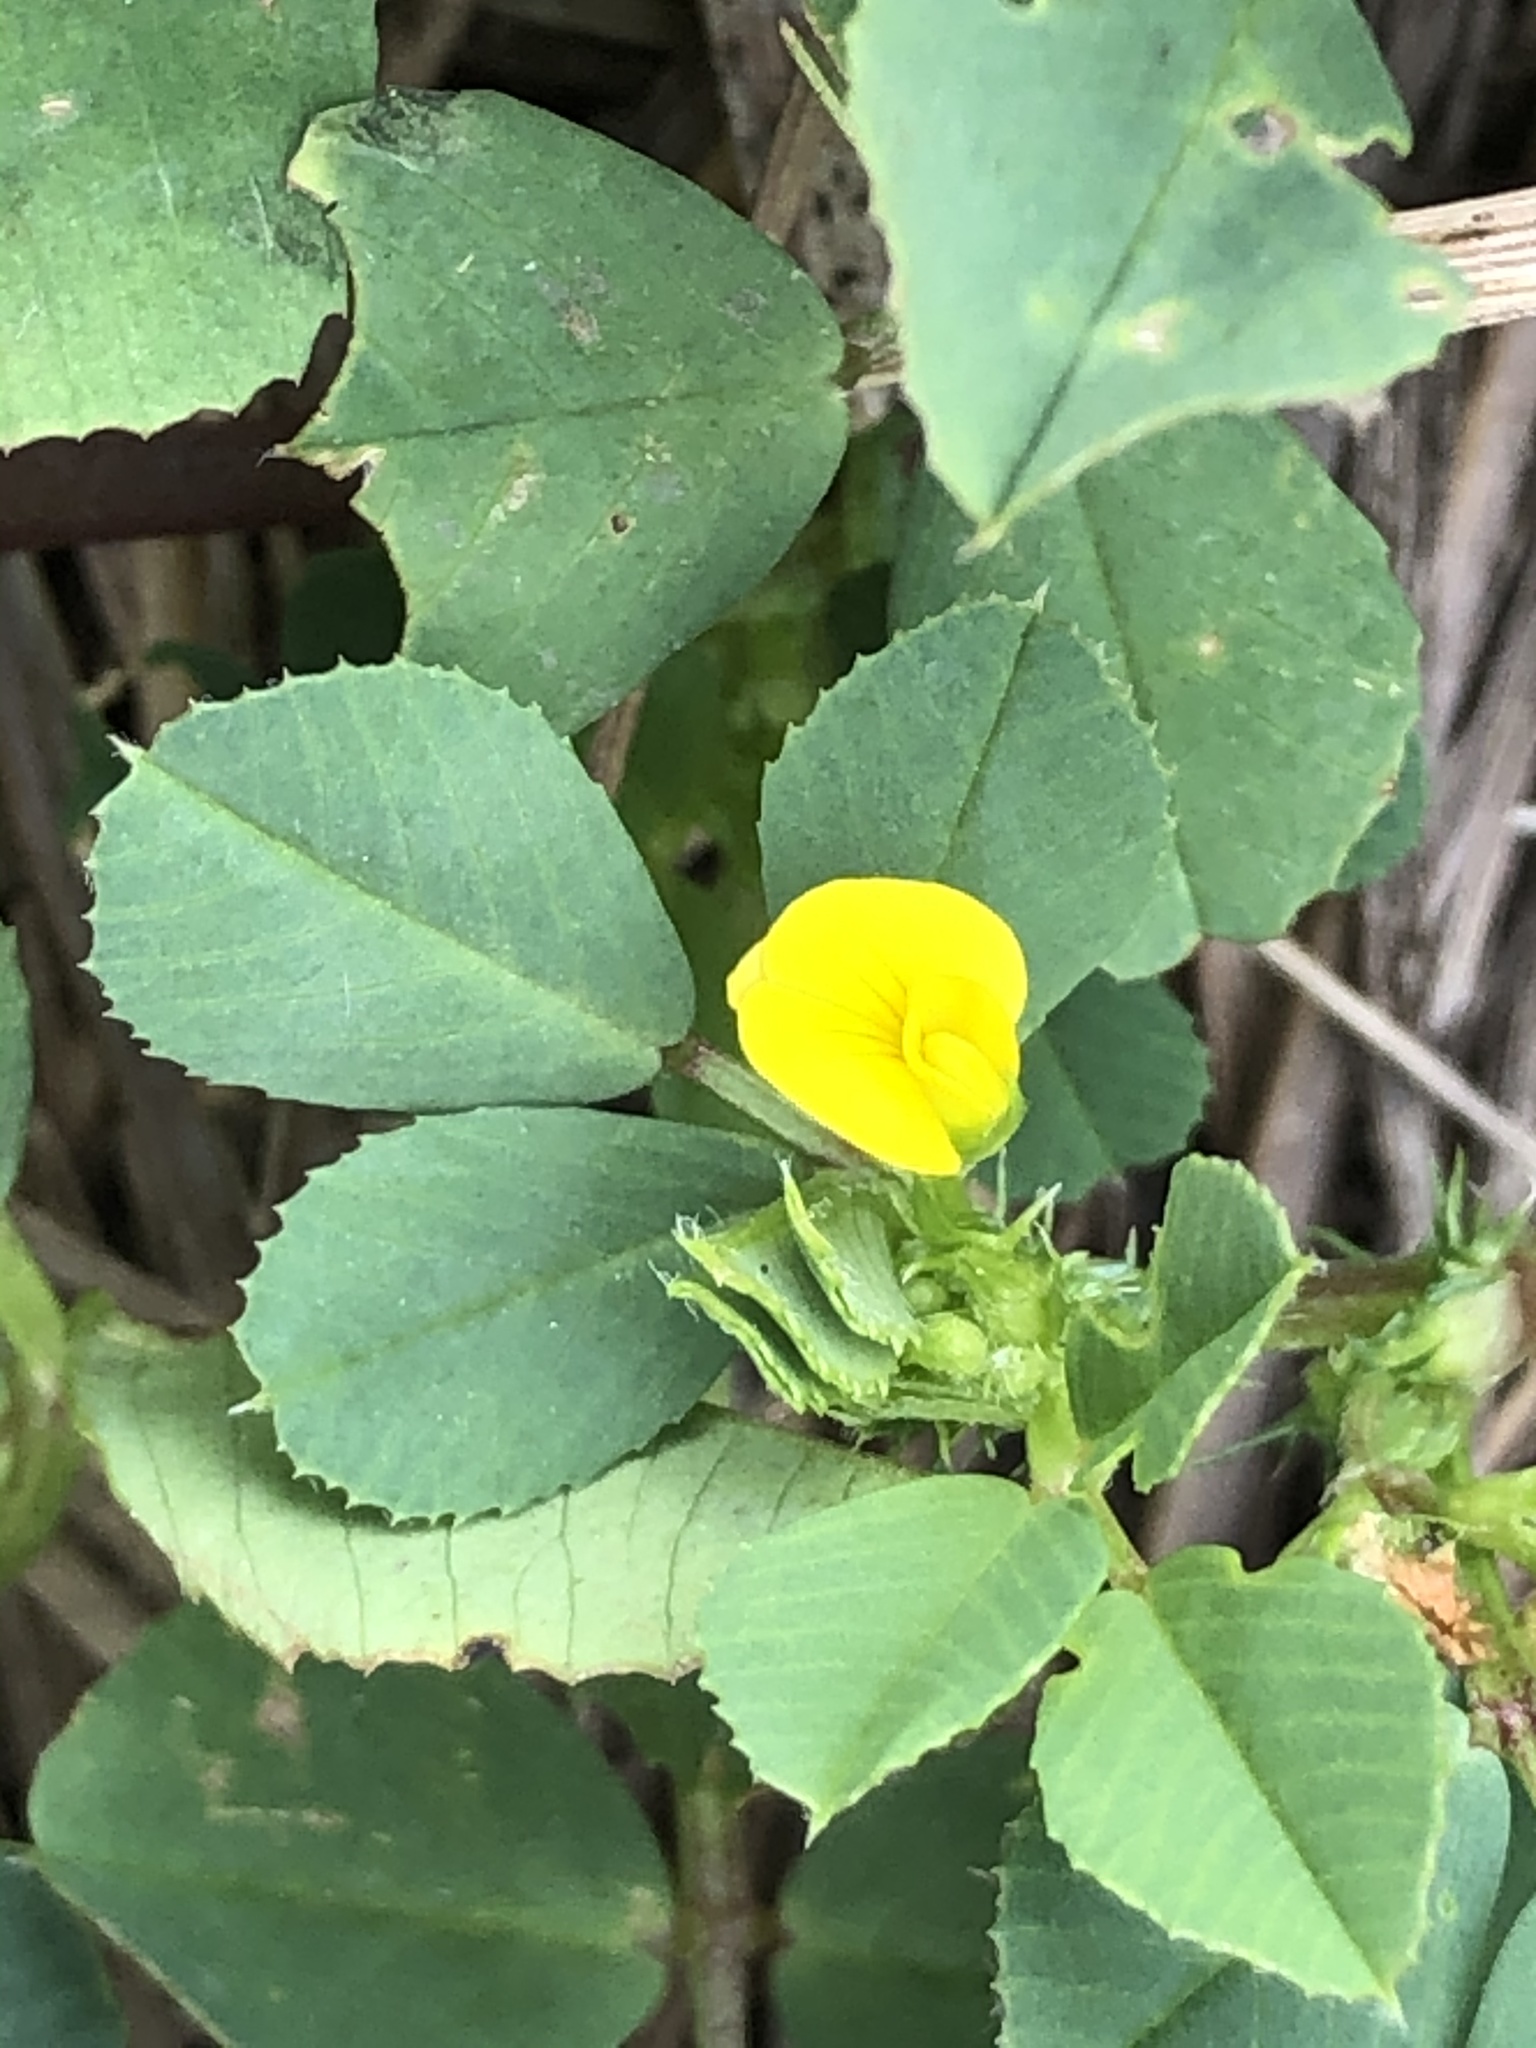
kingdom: Plantae
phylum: Tracheophyta
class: Magnoliopsida
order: Fabales
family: Fabaceae
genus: Medicago
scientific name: Medicago polymorpha
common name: Burclover
